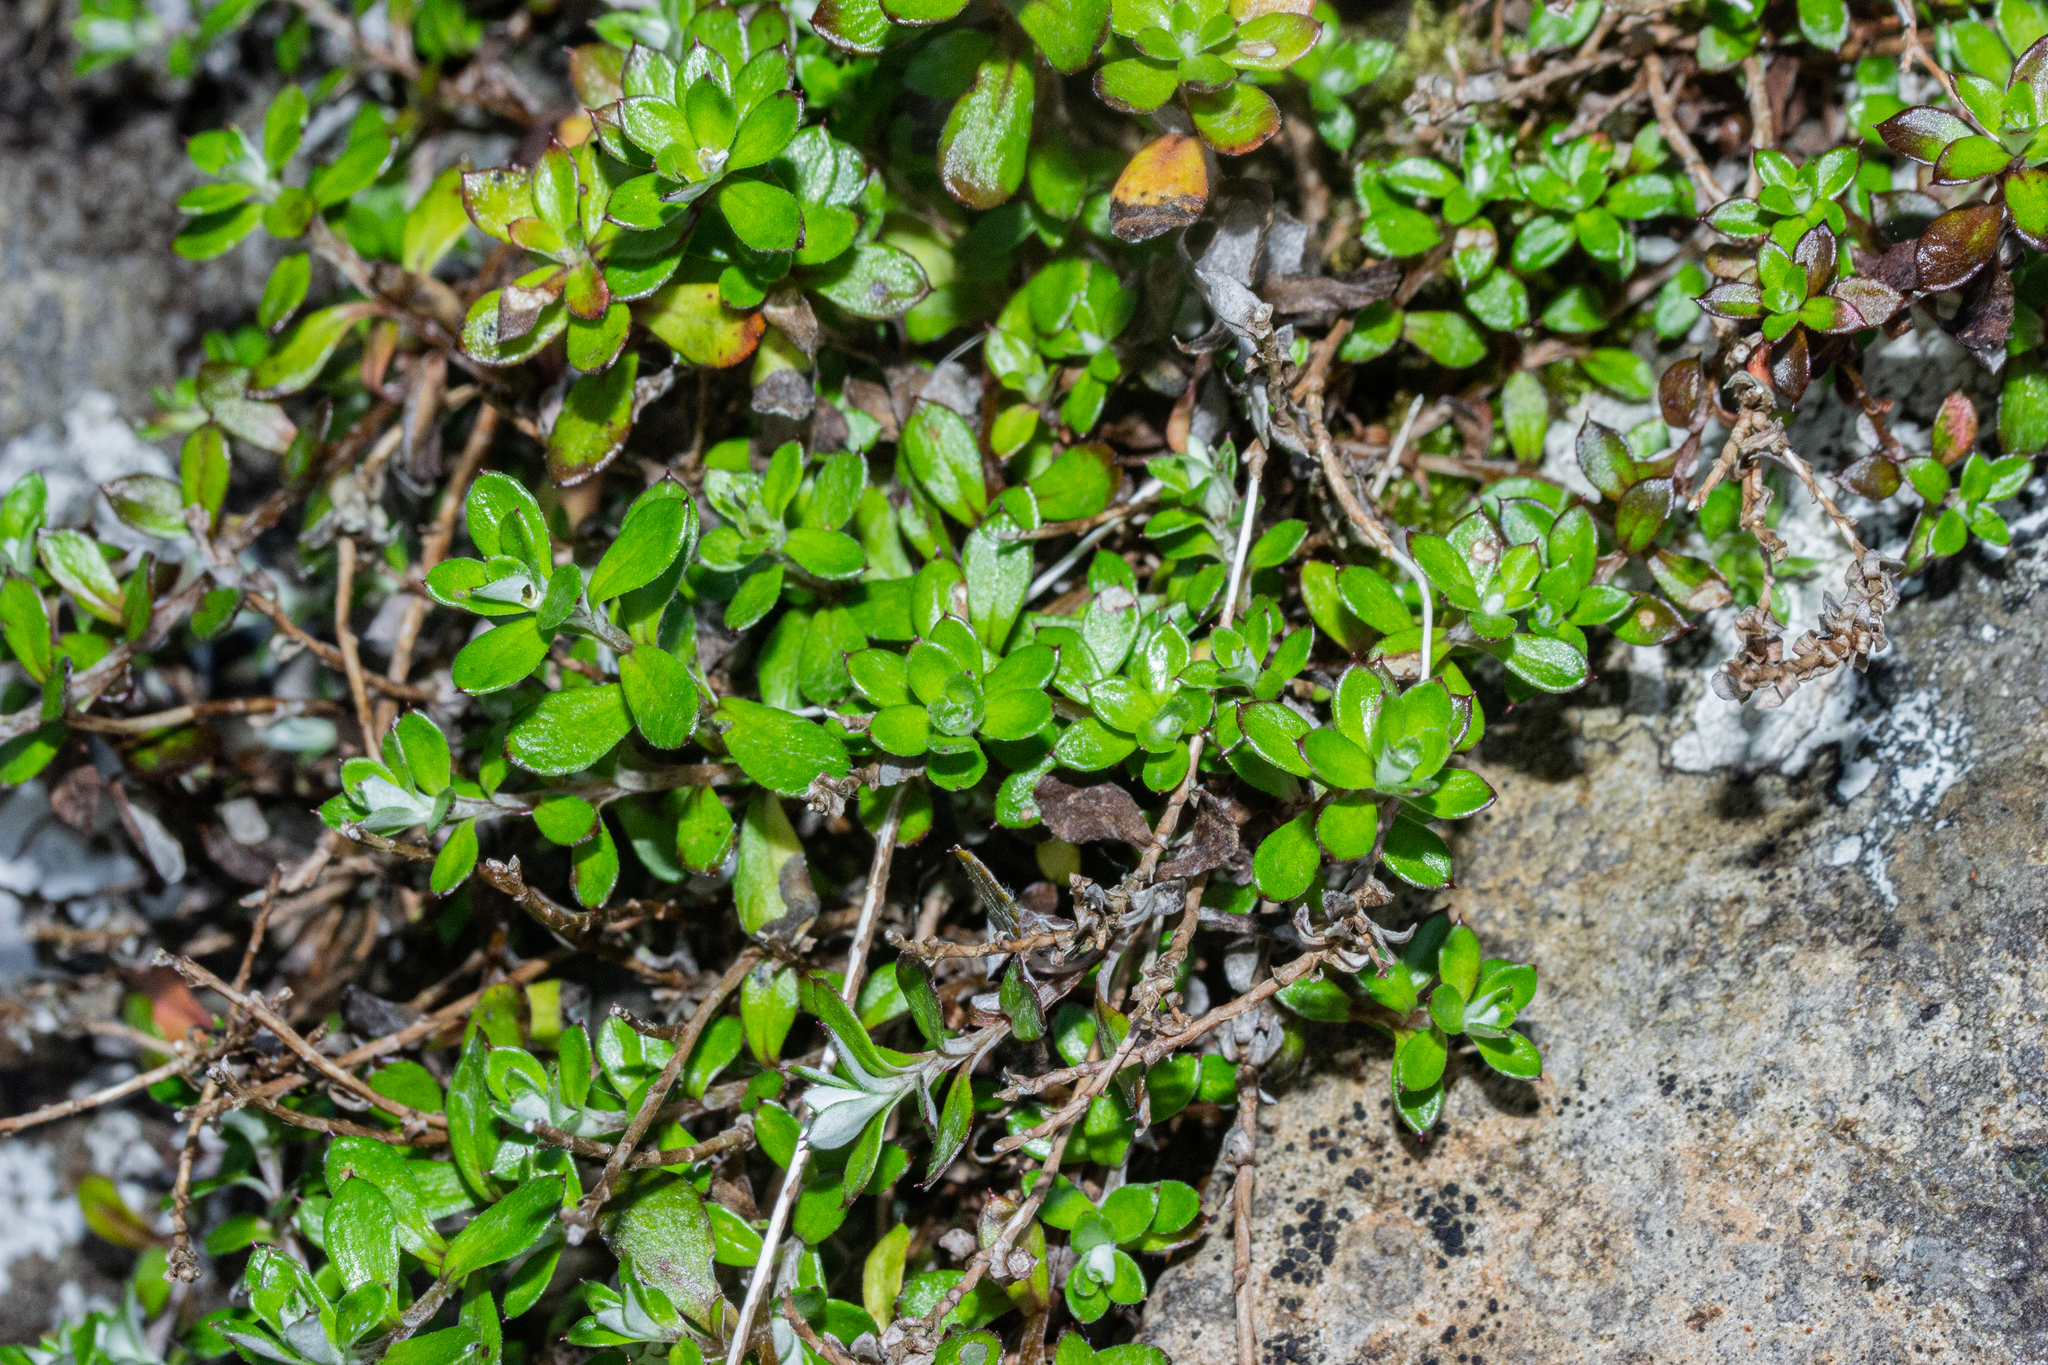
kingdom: Plantae
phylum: Tracheophyta
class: Magnoliopsida
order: Asterales
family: Asteraceae
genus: Anaphalioides
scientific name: Anaphalioides bellidioides
